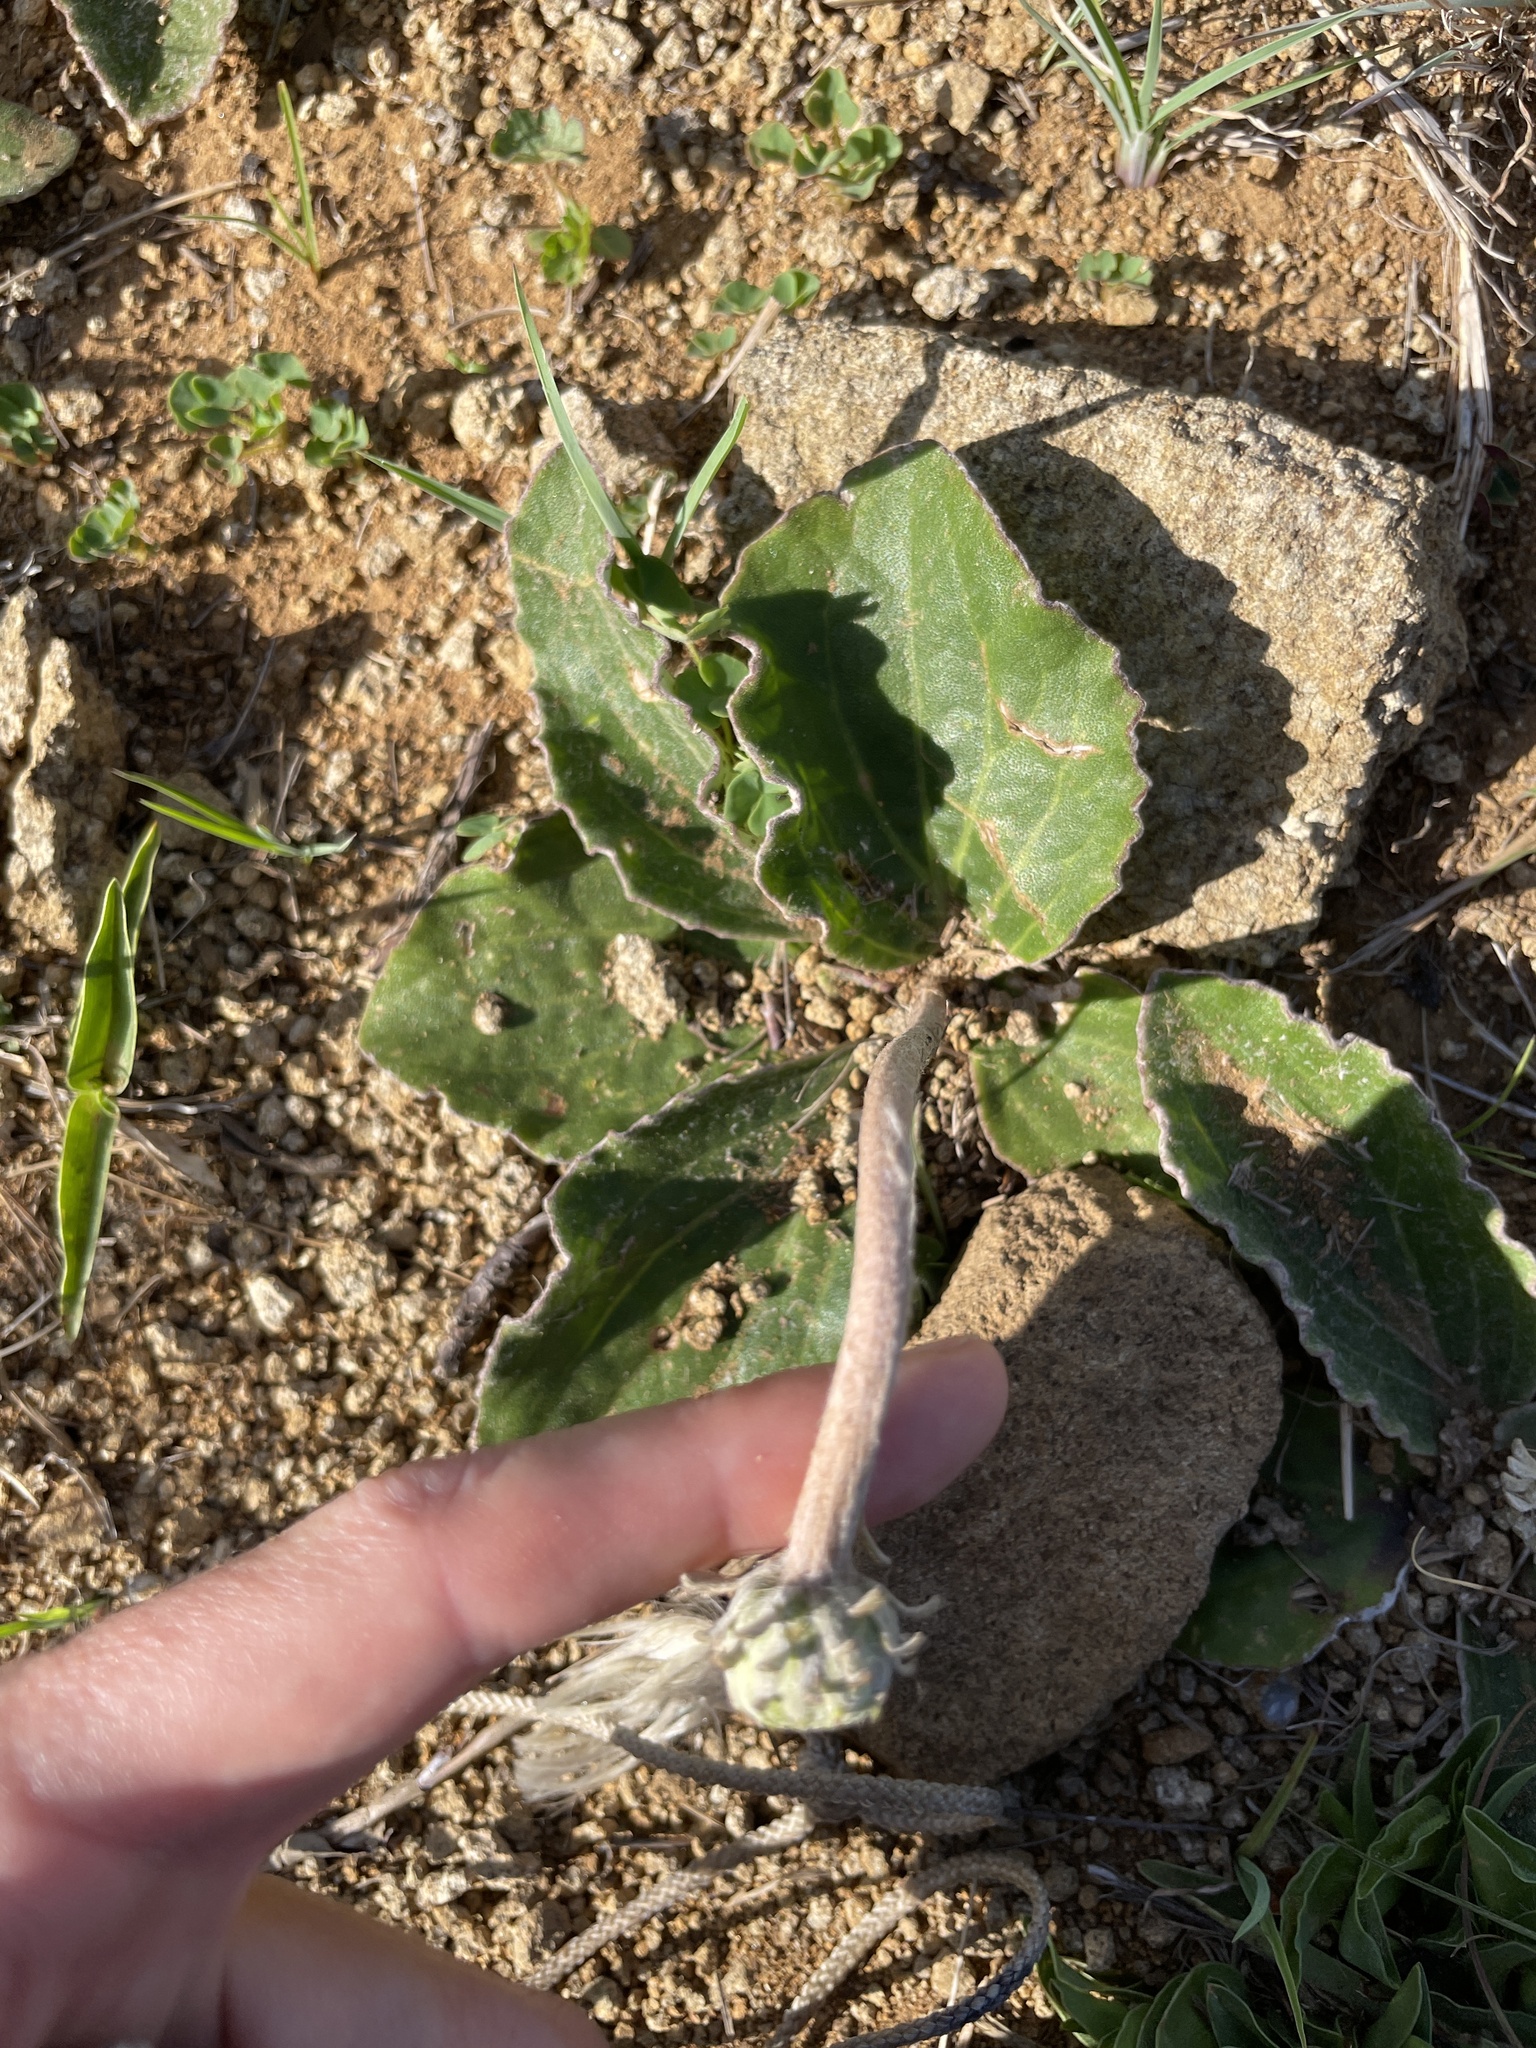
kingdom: Plantae
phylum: Tracheophyta
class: Magnoliopsida
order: Asterales
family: Asteraceae
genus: Haplocarpha
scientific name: Haplocarpha scaposa
